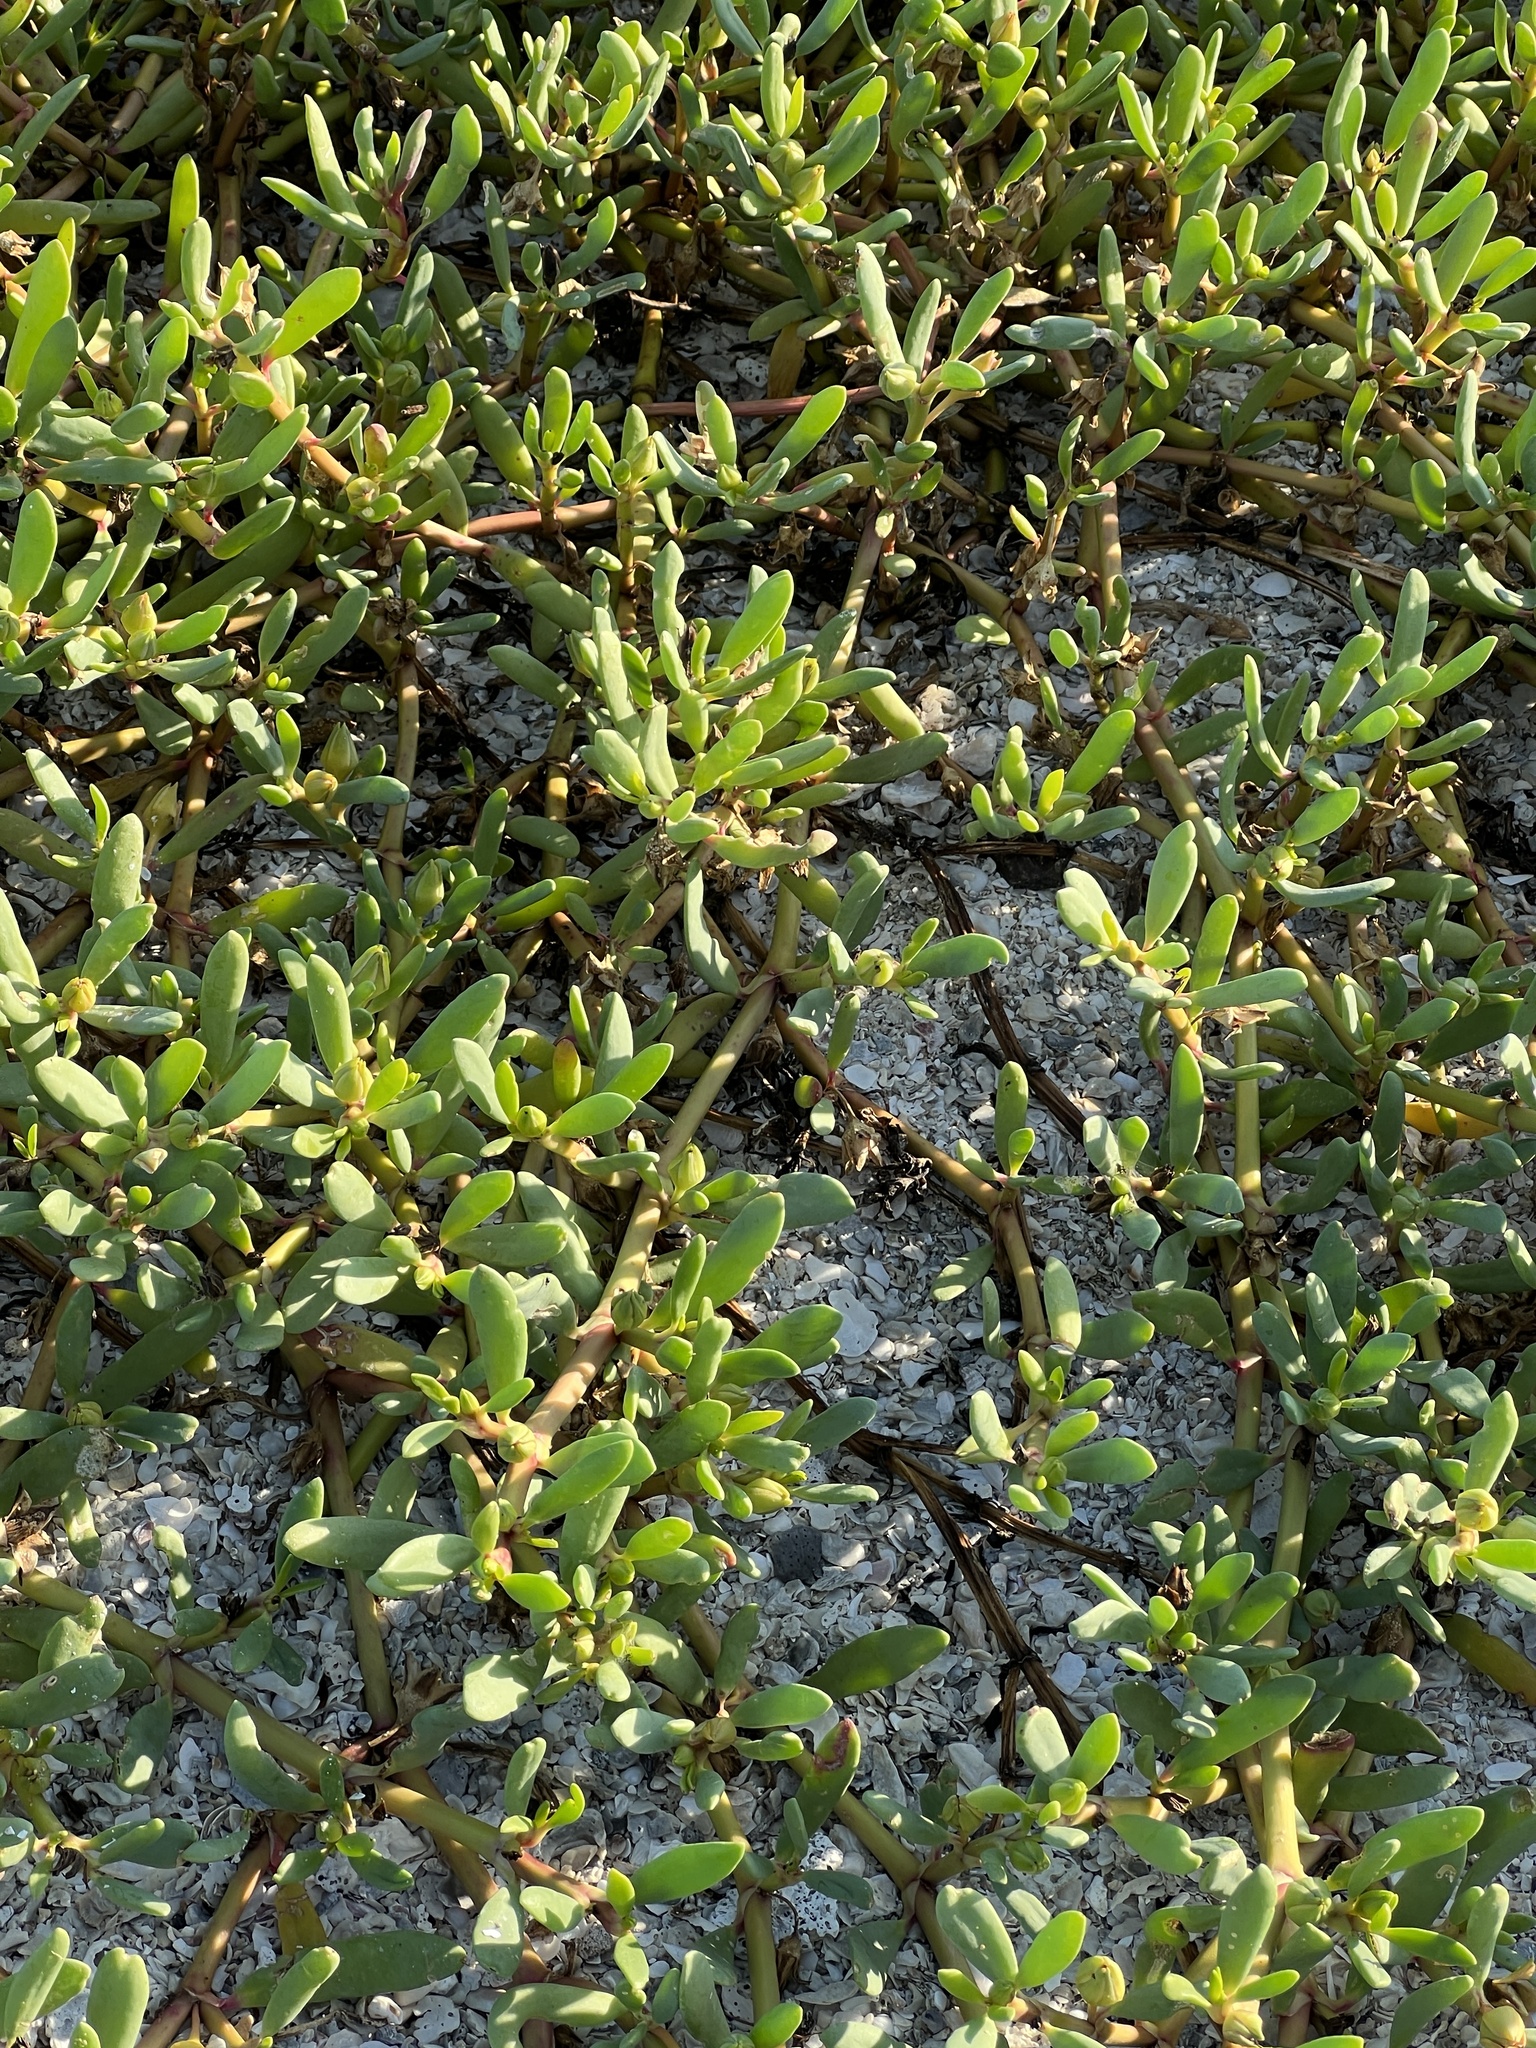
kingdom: Plantae
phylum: Tracheophyta
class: Magnoliopsida
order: Caryophyllales
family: Aizoaceae
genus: Sesuvium
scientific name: Sesuvium portulacastrum
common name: Sea-purslane
